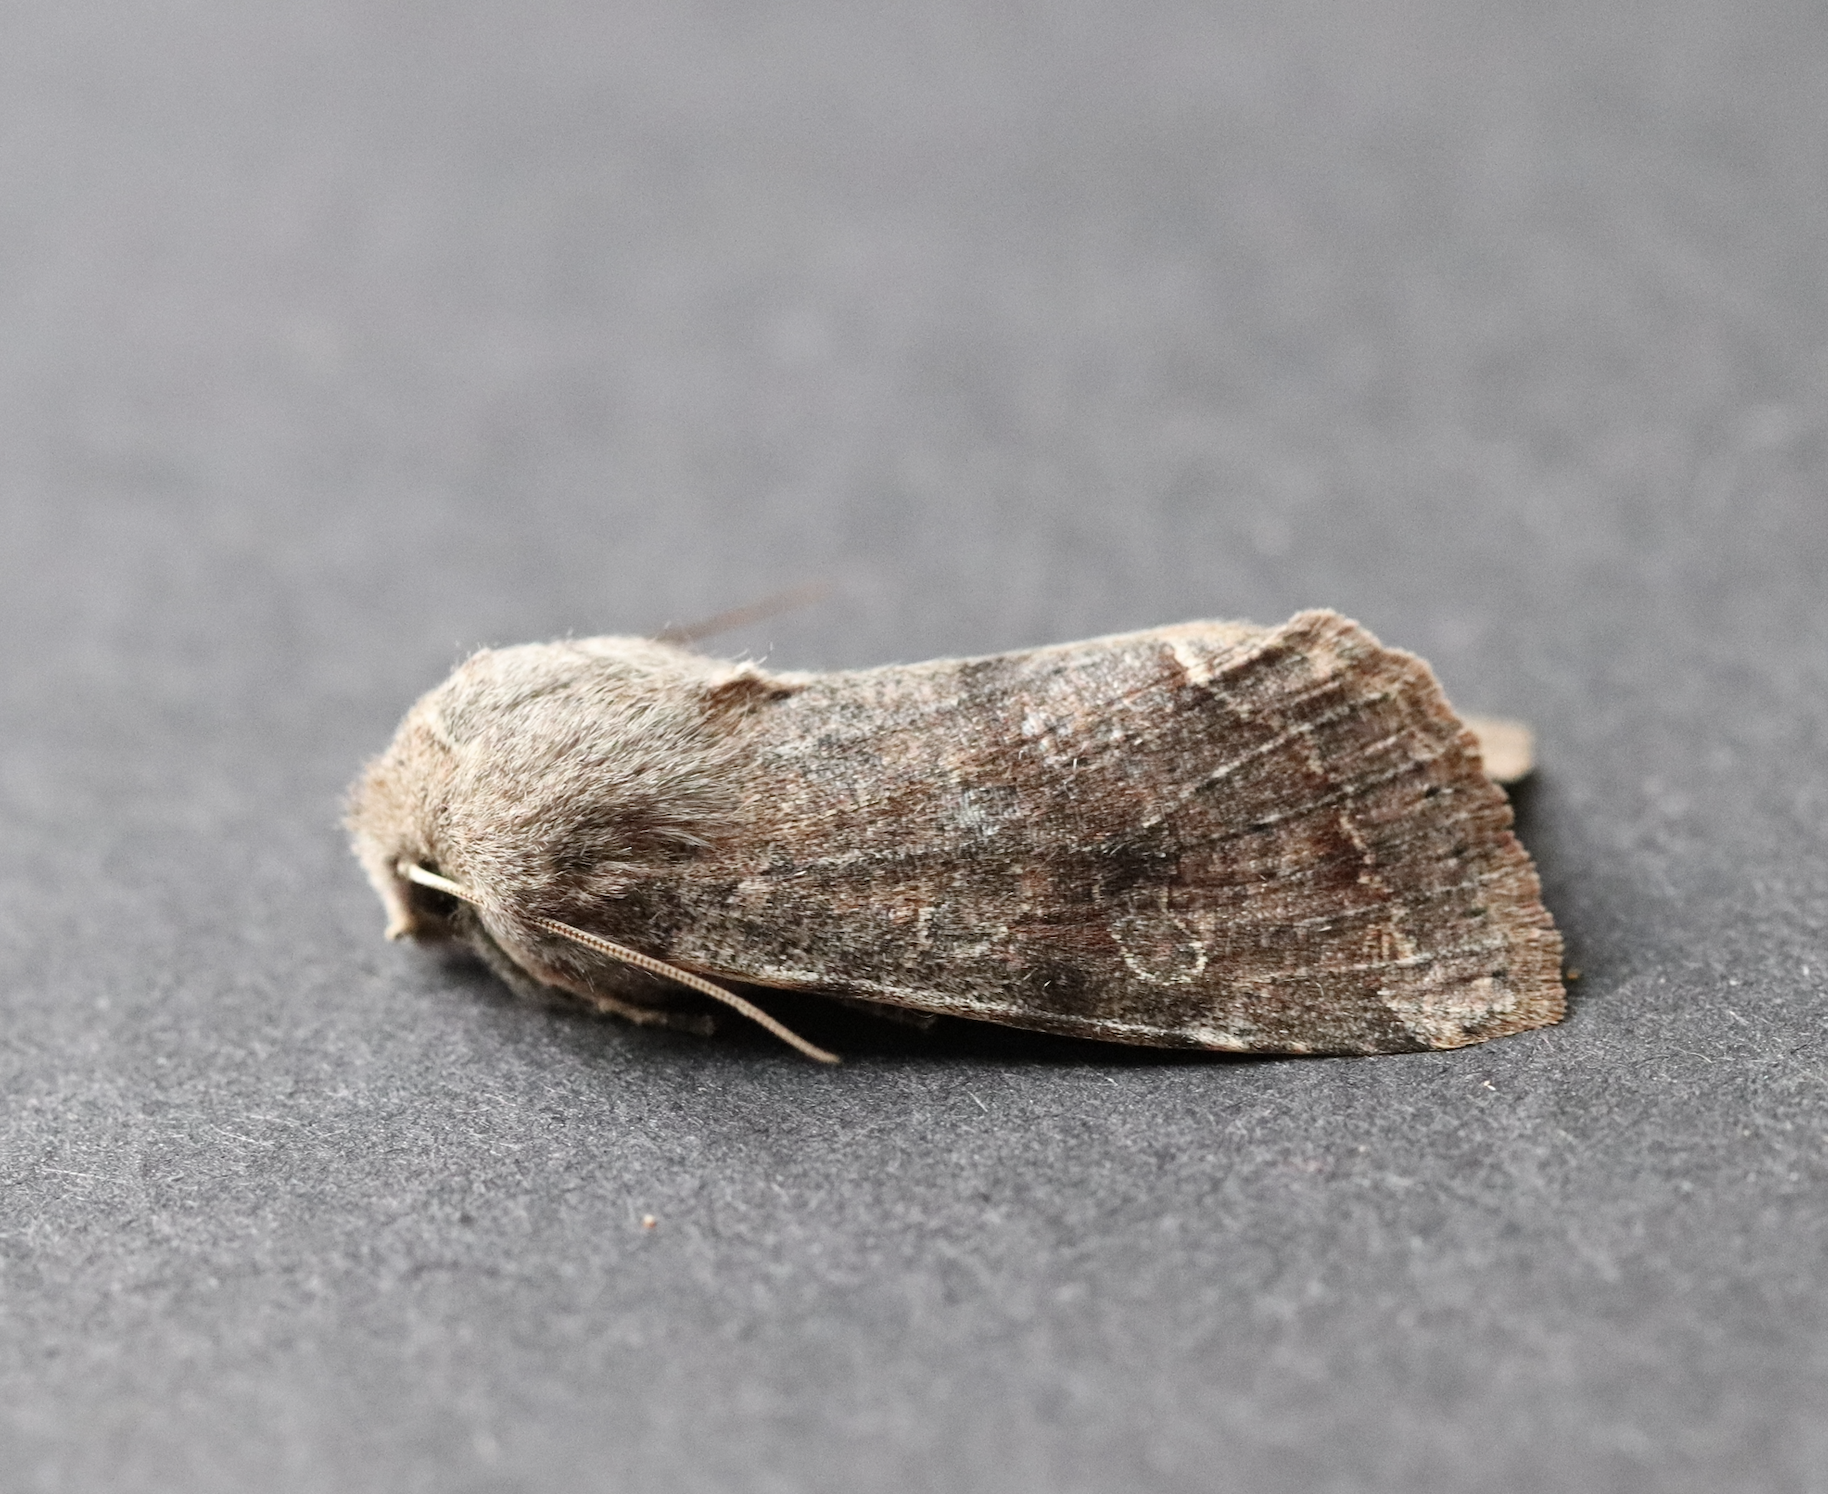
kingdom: Animalia
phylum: Arthropoda
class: Insecta
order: Lepidoptera
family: Noctuidae
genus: Orthosia
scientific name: Orthosia incerta
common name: Clouded drab
